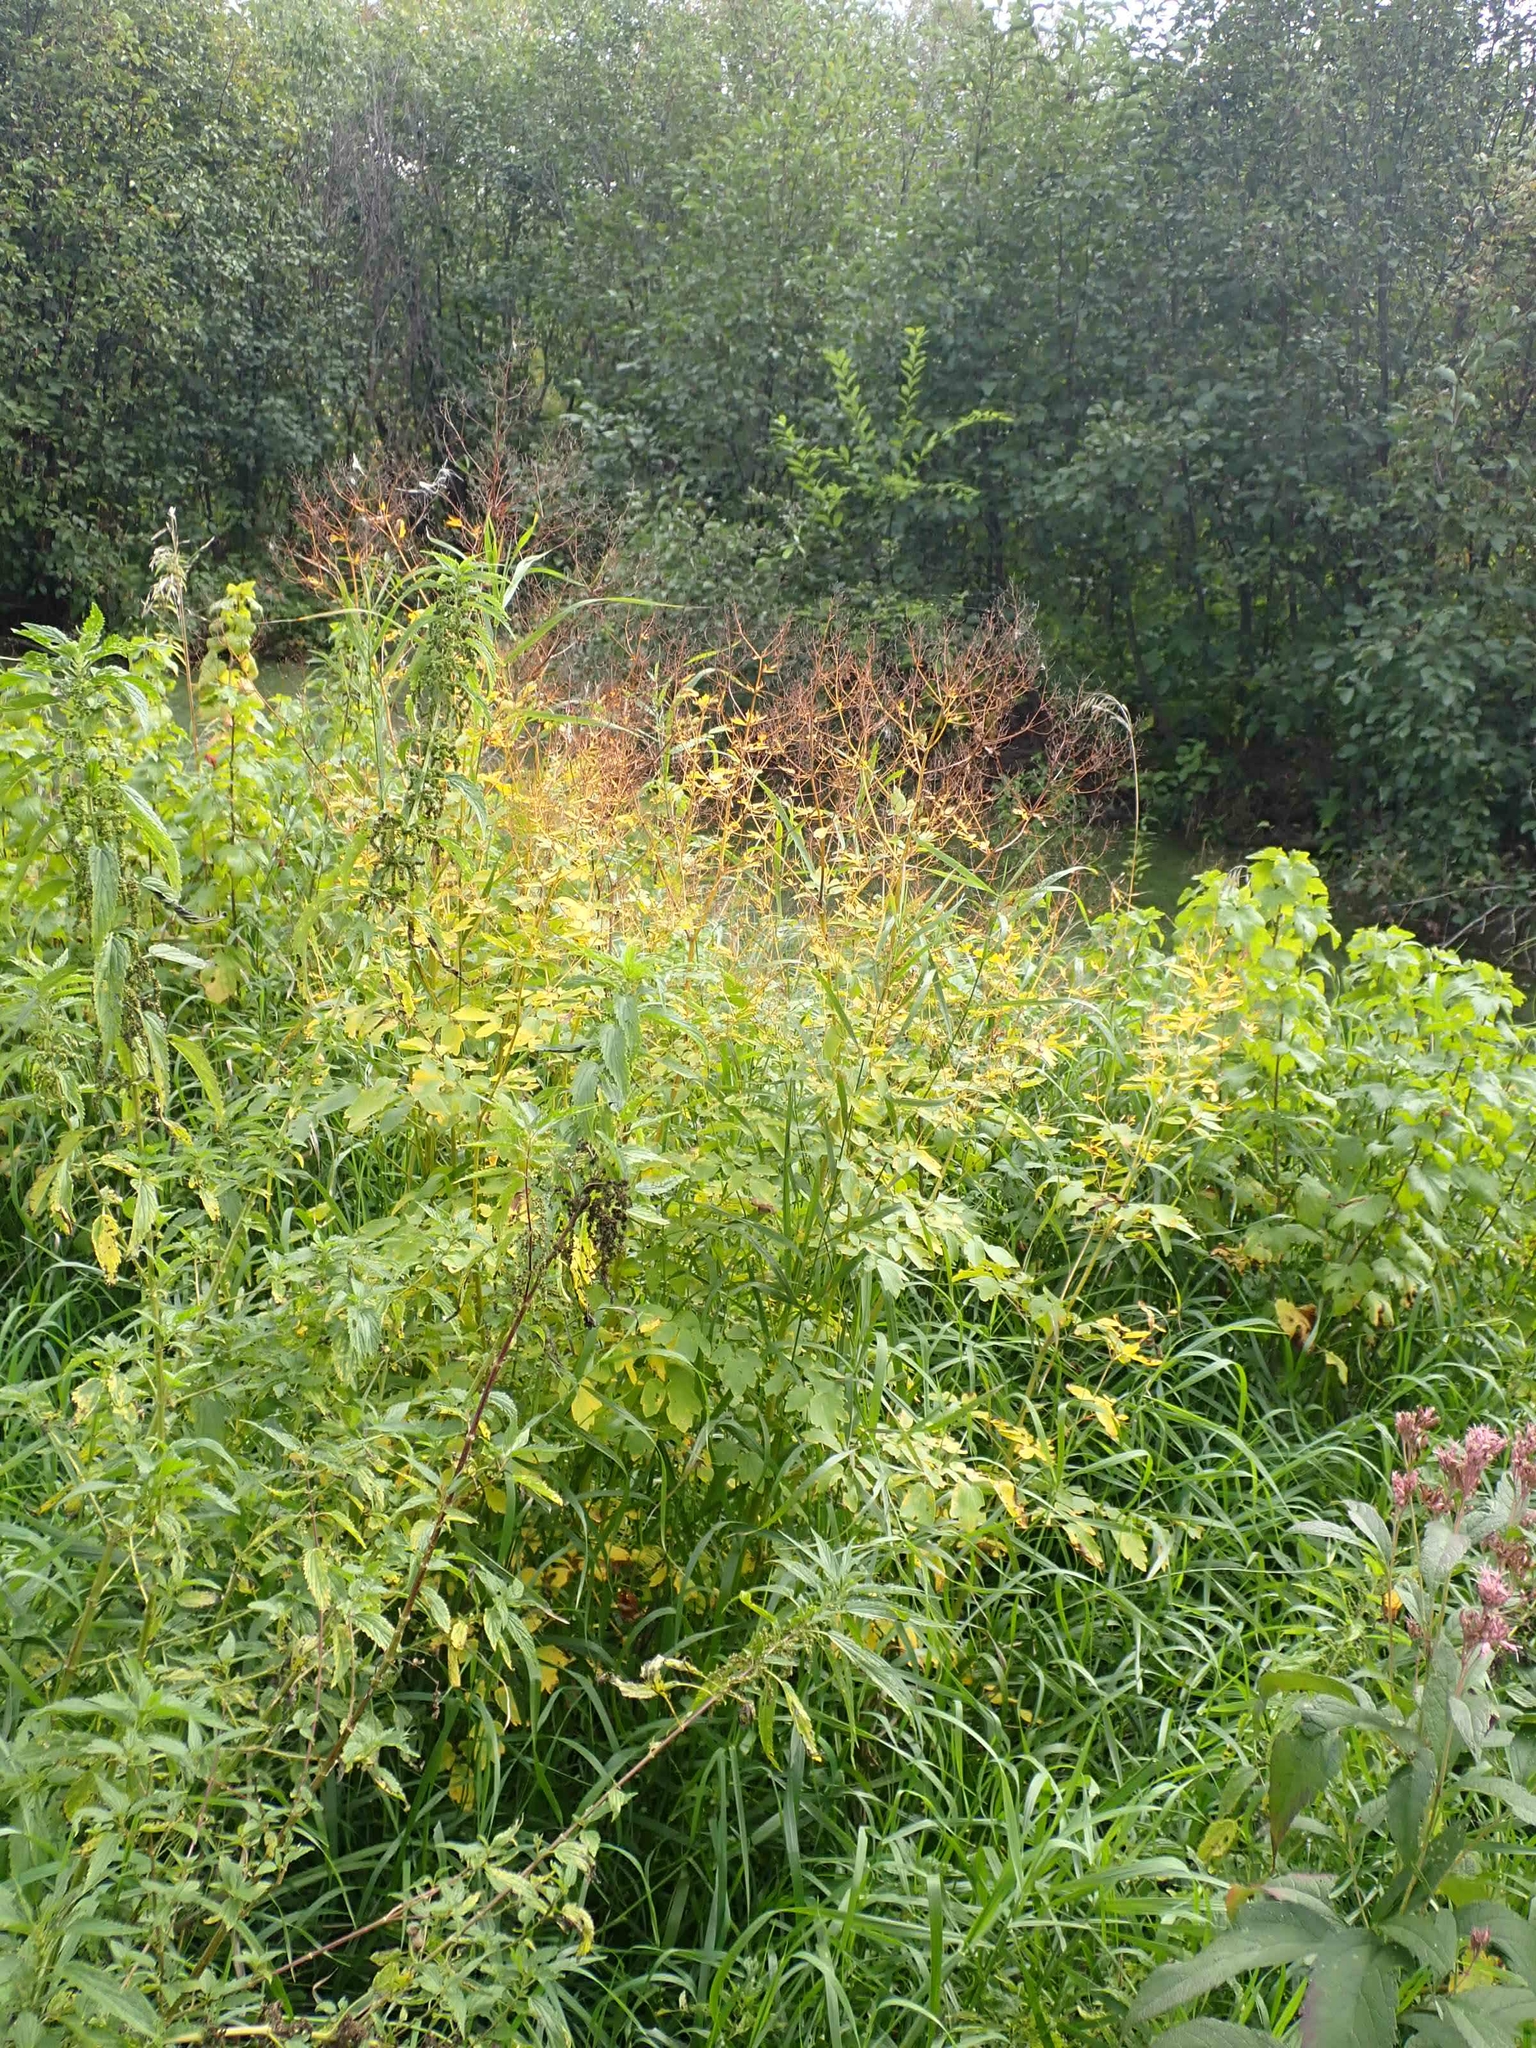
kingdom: Plantae
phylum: Tracheophyta
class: Magnoliopsida
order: Ranunculales
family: Ranunculaceae
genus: Thalictrum
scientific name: Thalictrum dasycarpum
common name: Purple meadow-rue
